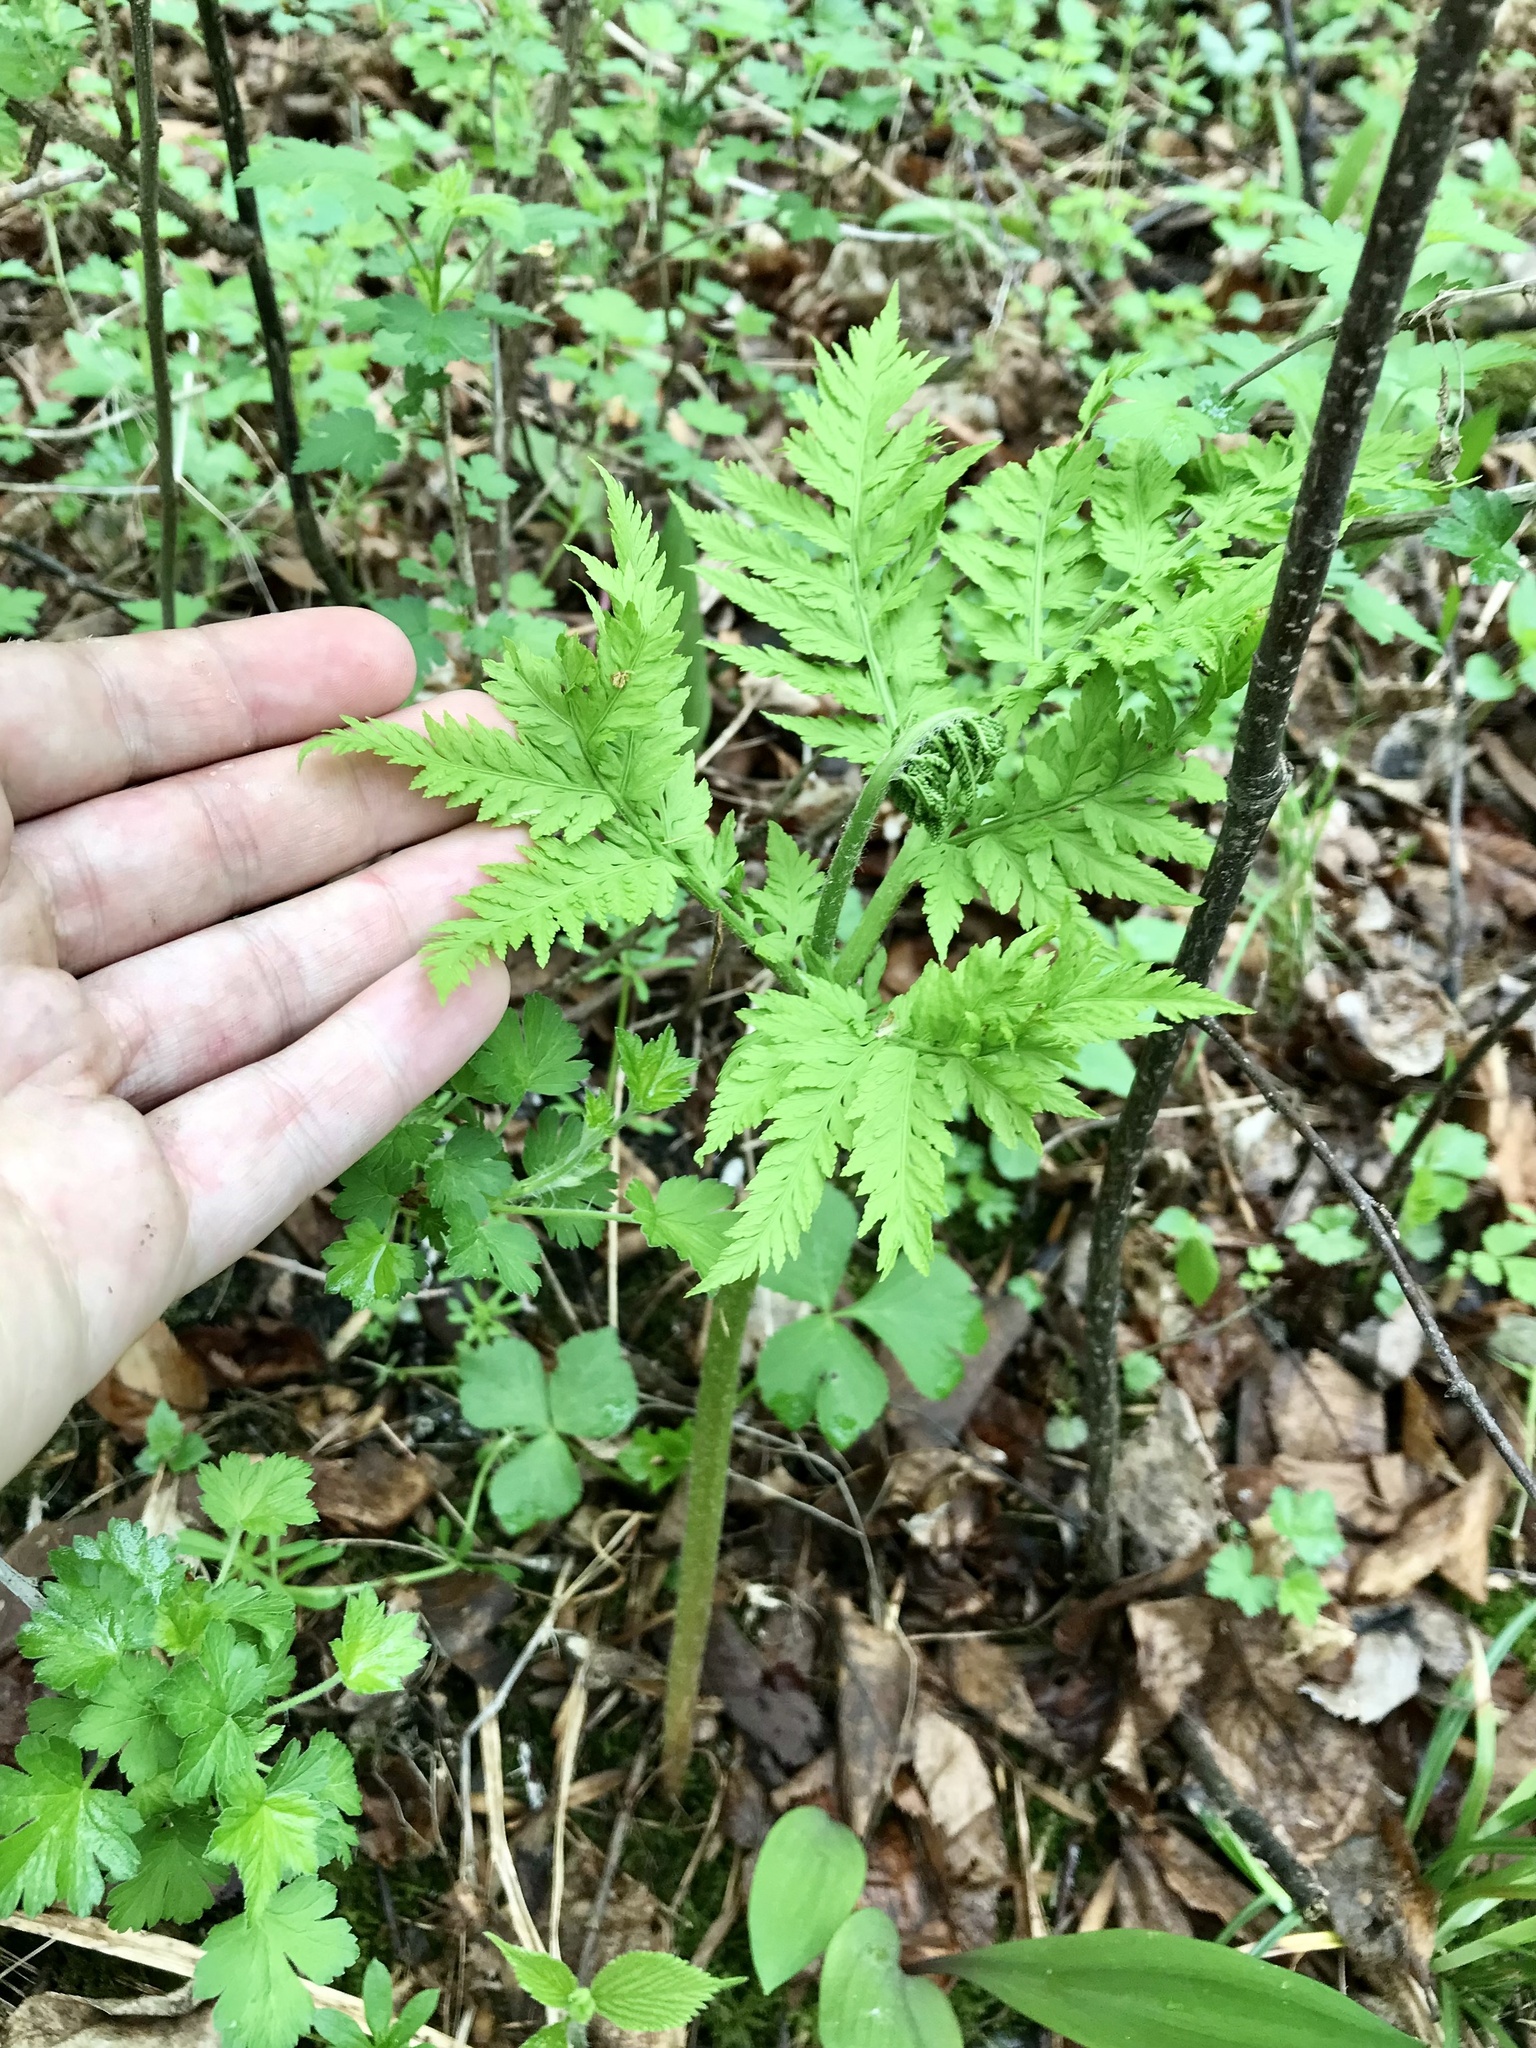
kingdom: Plantae
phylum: Tracheophyta
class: Polypodiopsida
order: Ophioglossales
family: Ophioglossaceae
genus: Botrypus
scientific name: Botrypus virginianus
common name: Common grapefern
